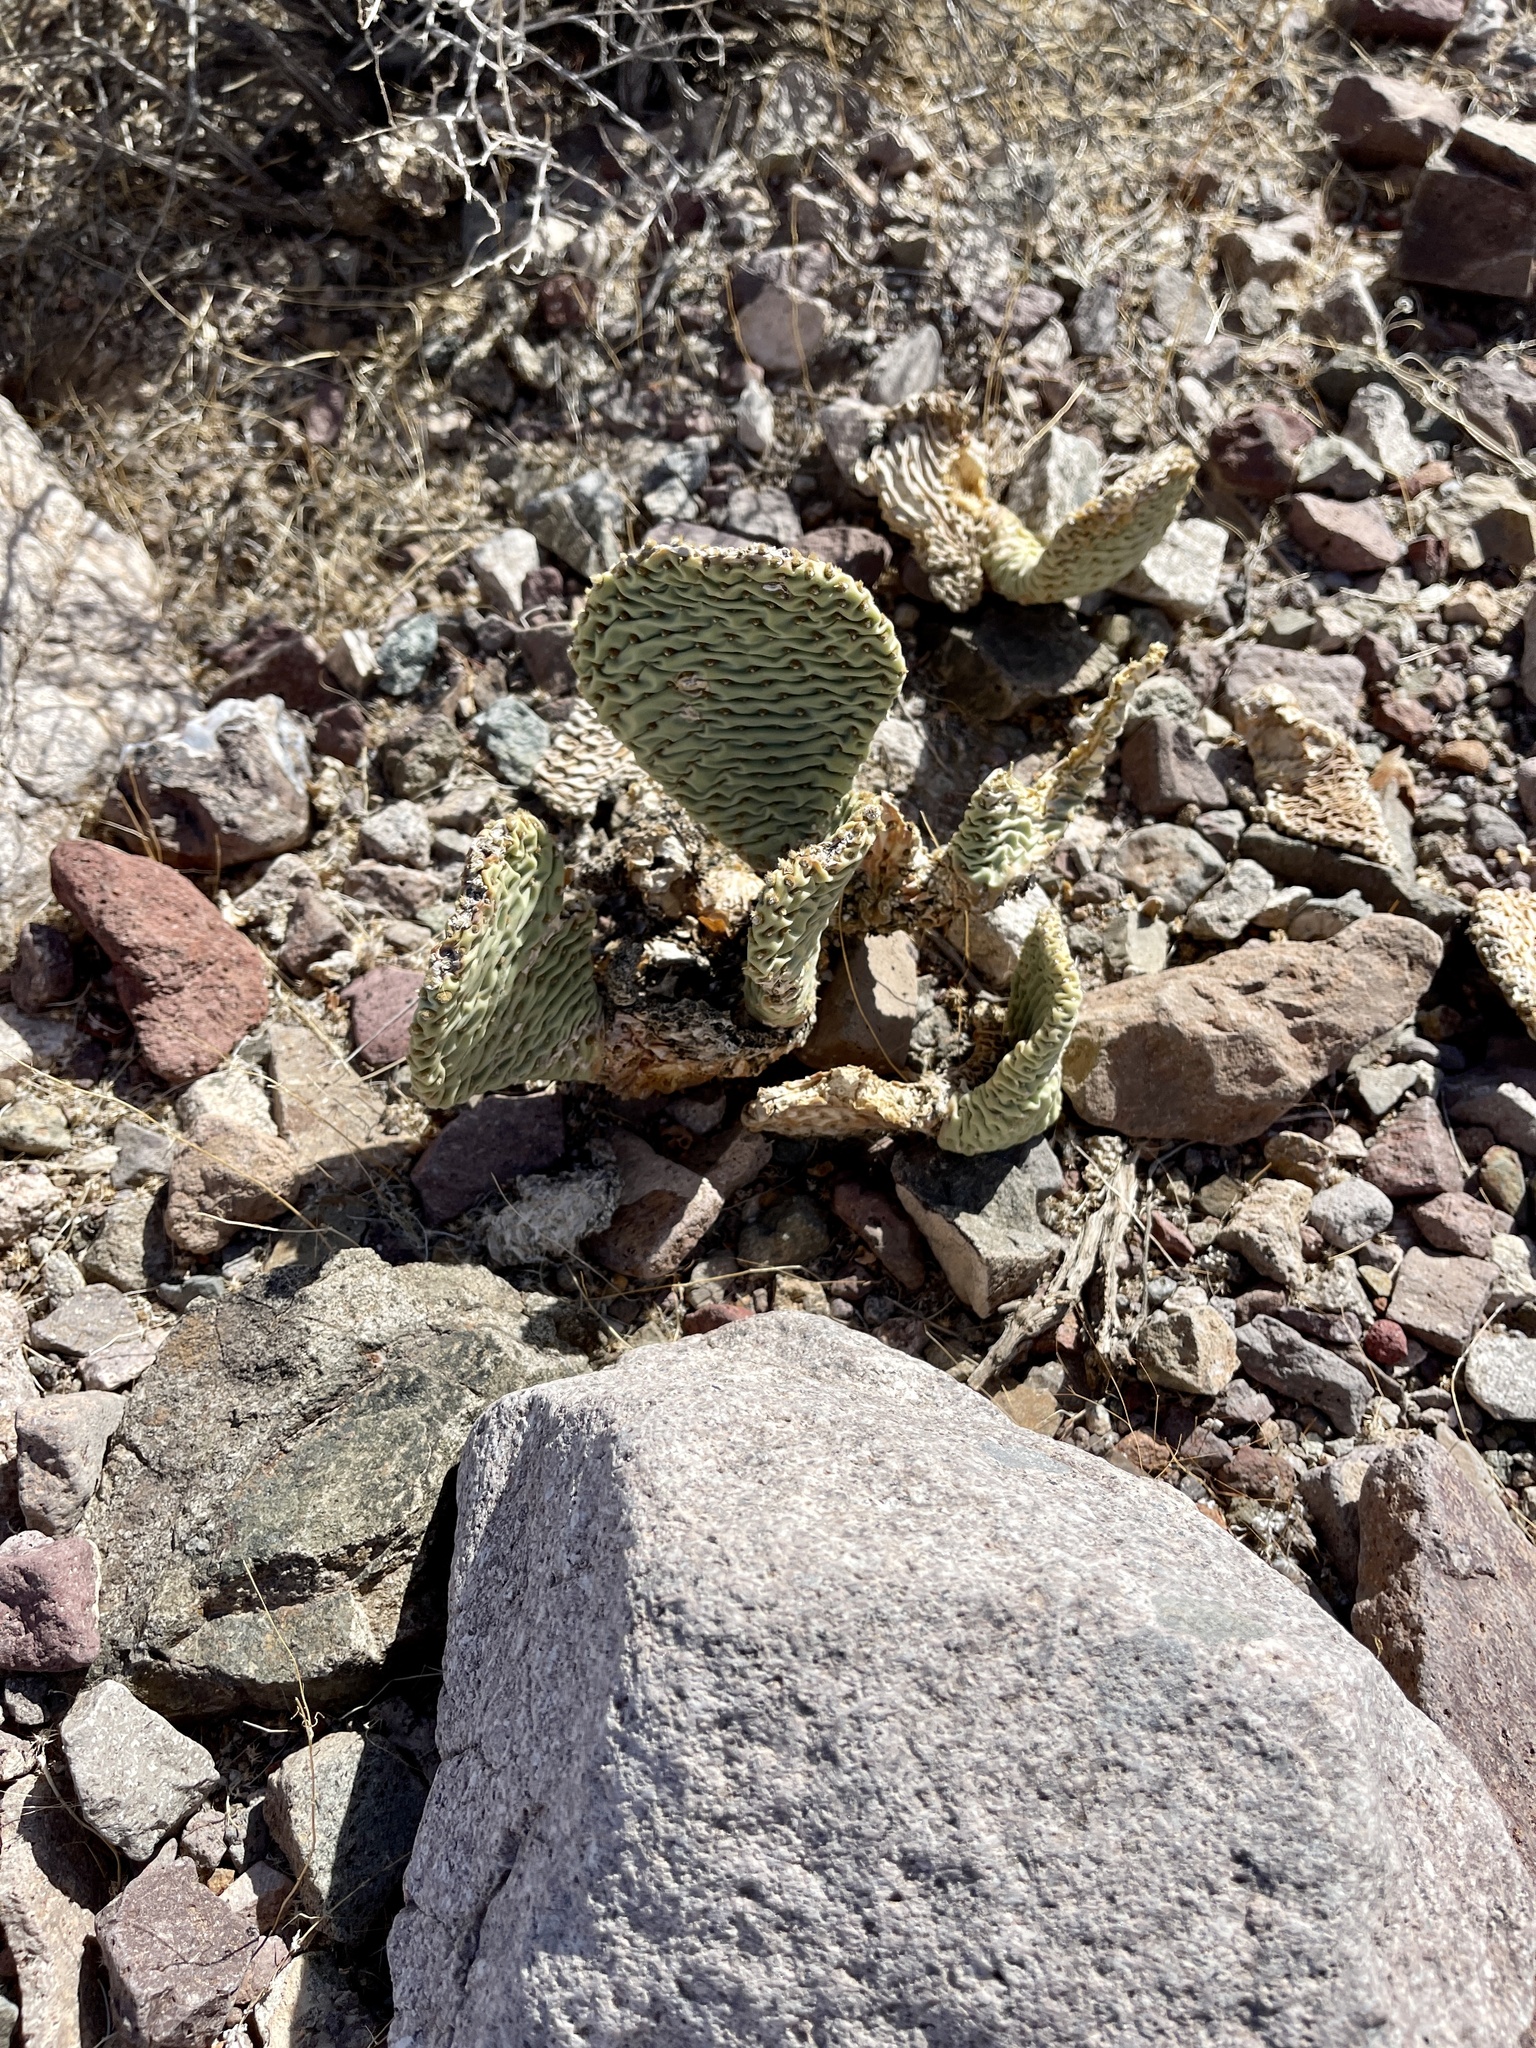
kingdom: Plantae
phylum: Tracheophyta
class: Magnoliopsida
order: Caryophyllales
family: Cactaceae
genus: Opuntia
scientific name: Opuntia basilaris
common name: Beavertail prickly-pear
